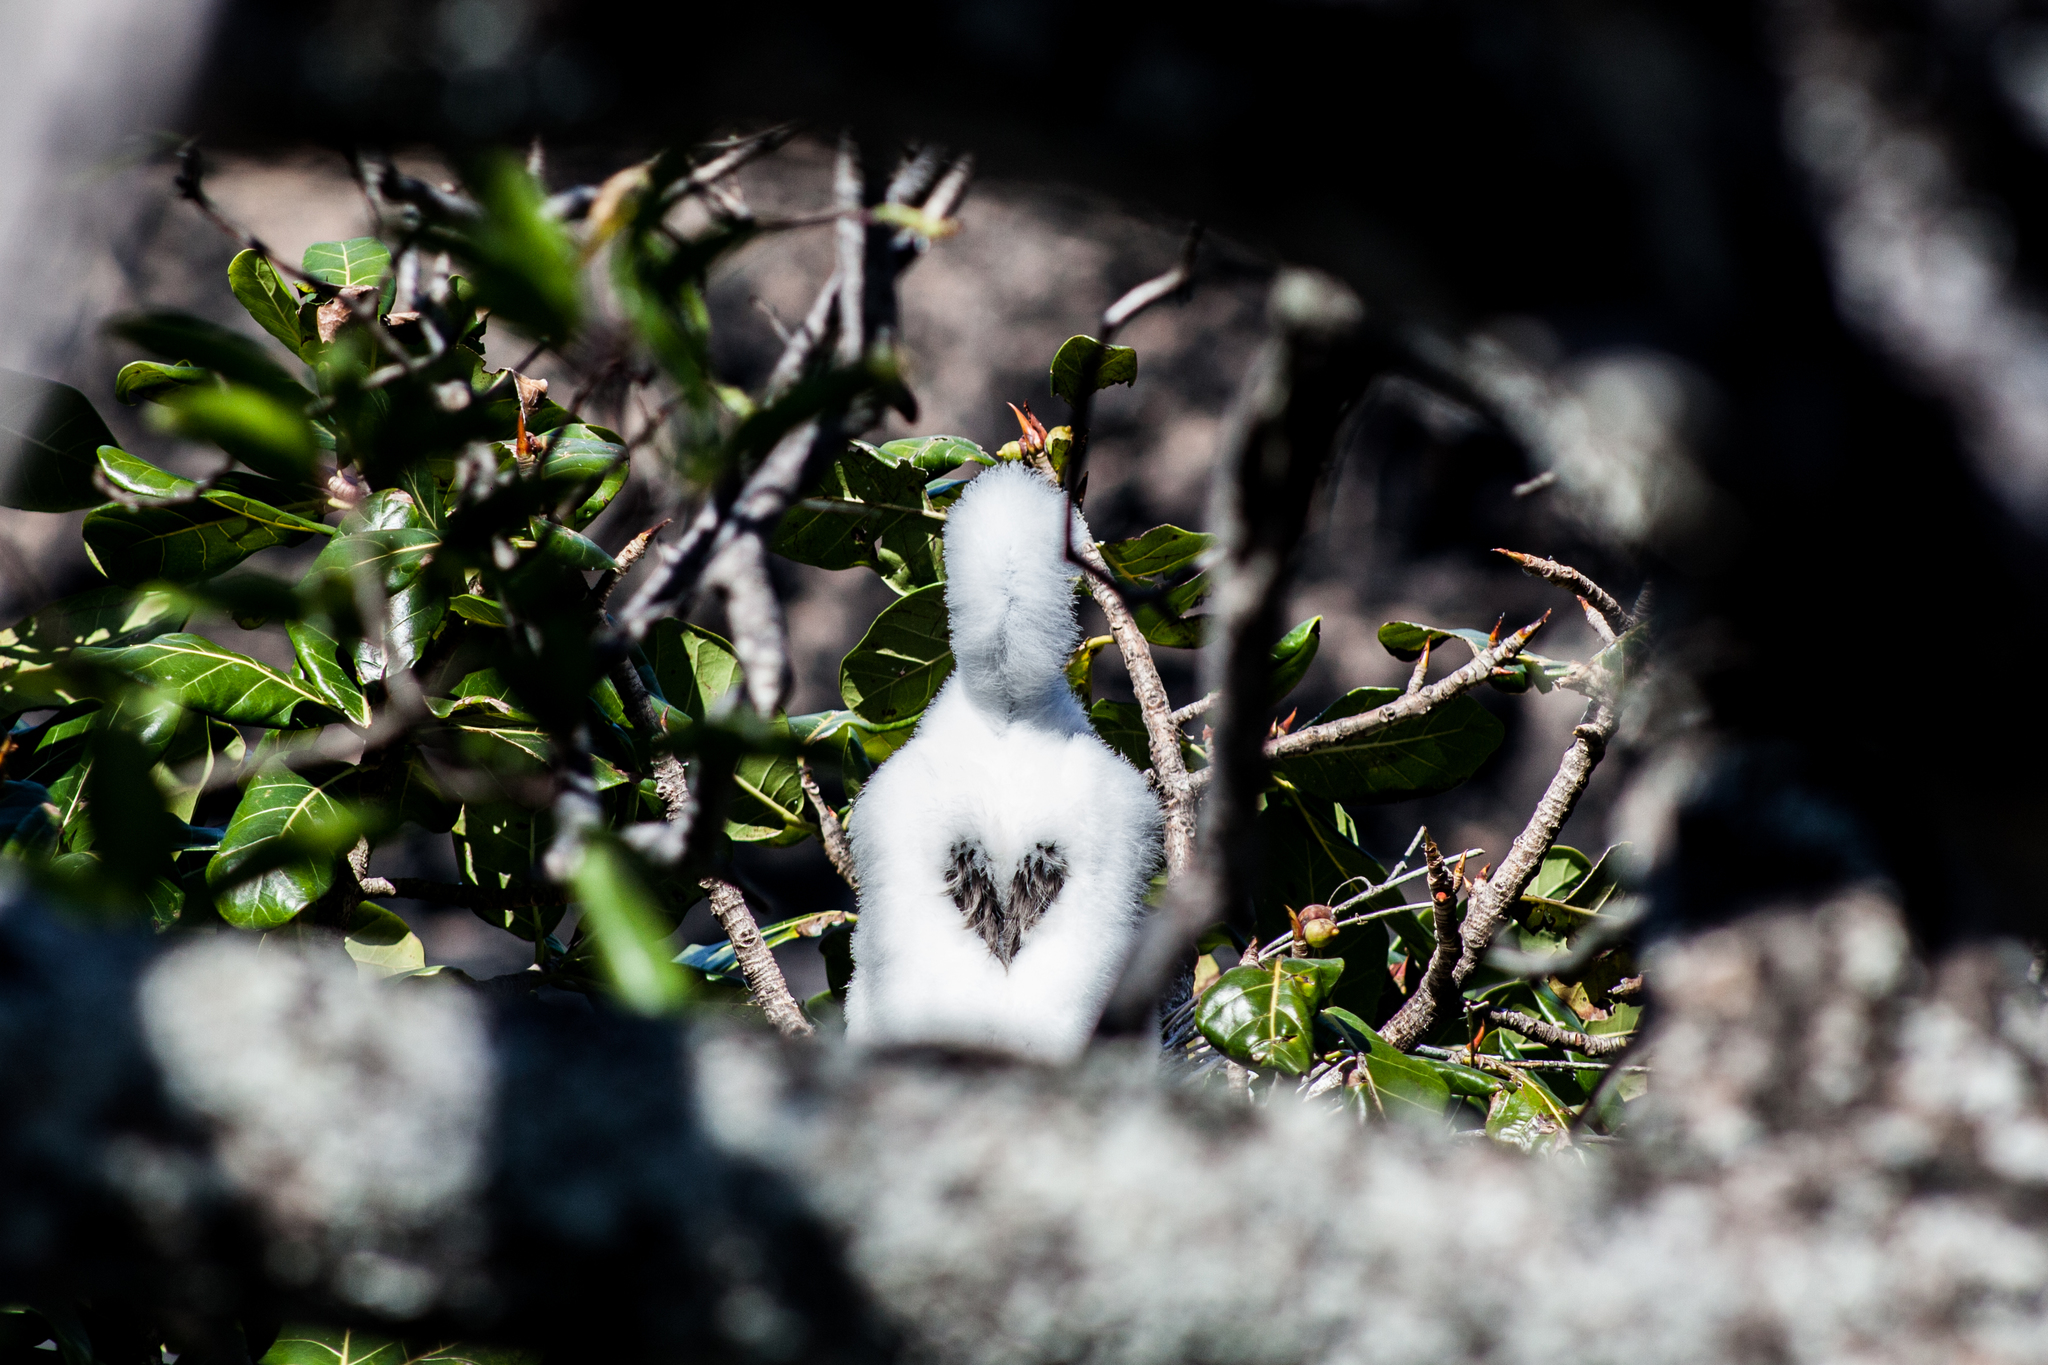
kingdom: Animalia
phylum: Chordata
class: Aves
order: Suliformes
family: Sulidae
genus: Sula
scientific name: Sula sula
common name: Red-footed booby
